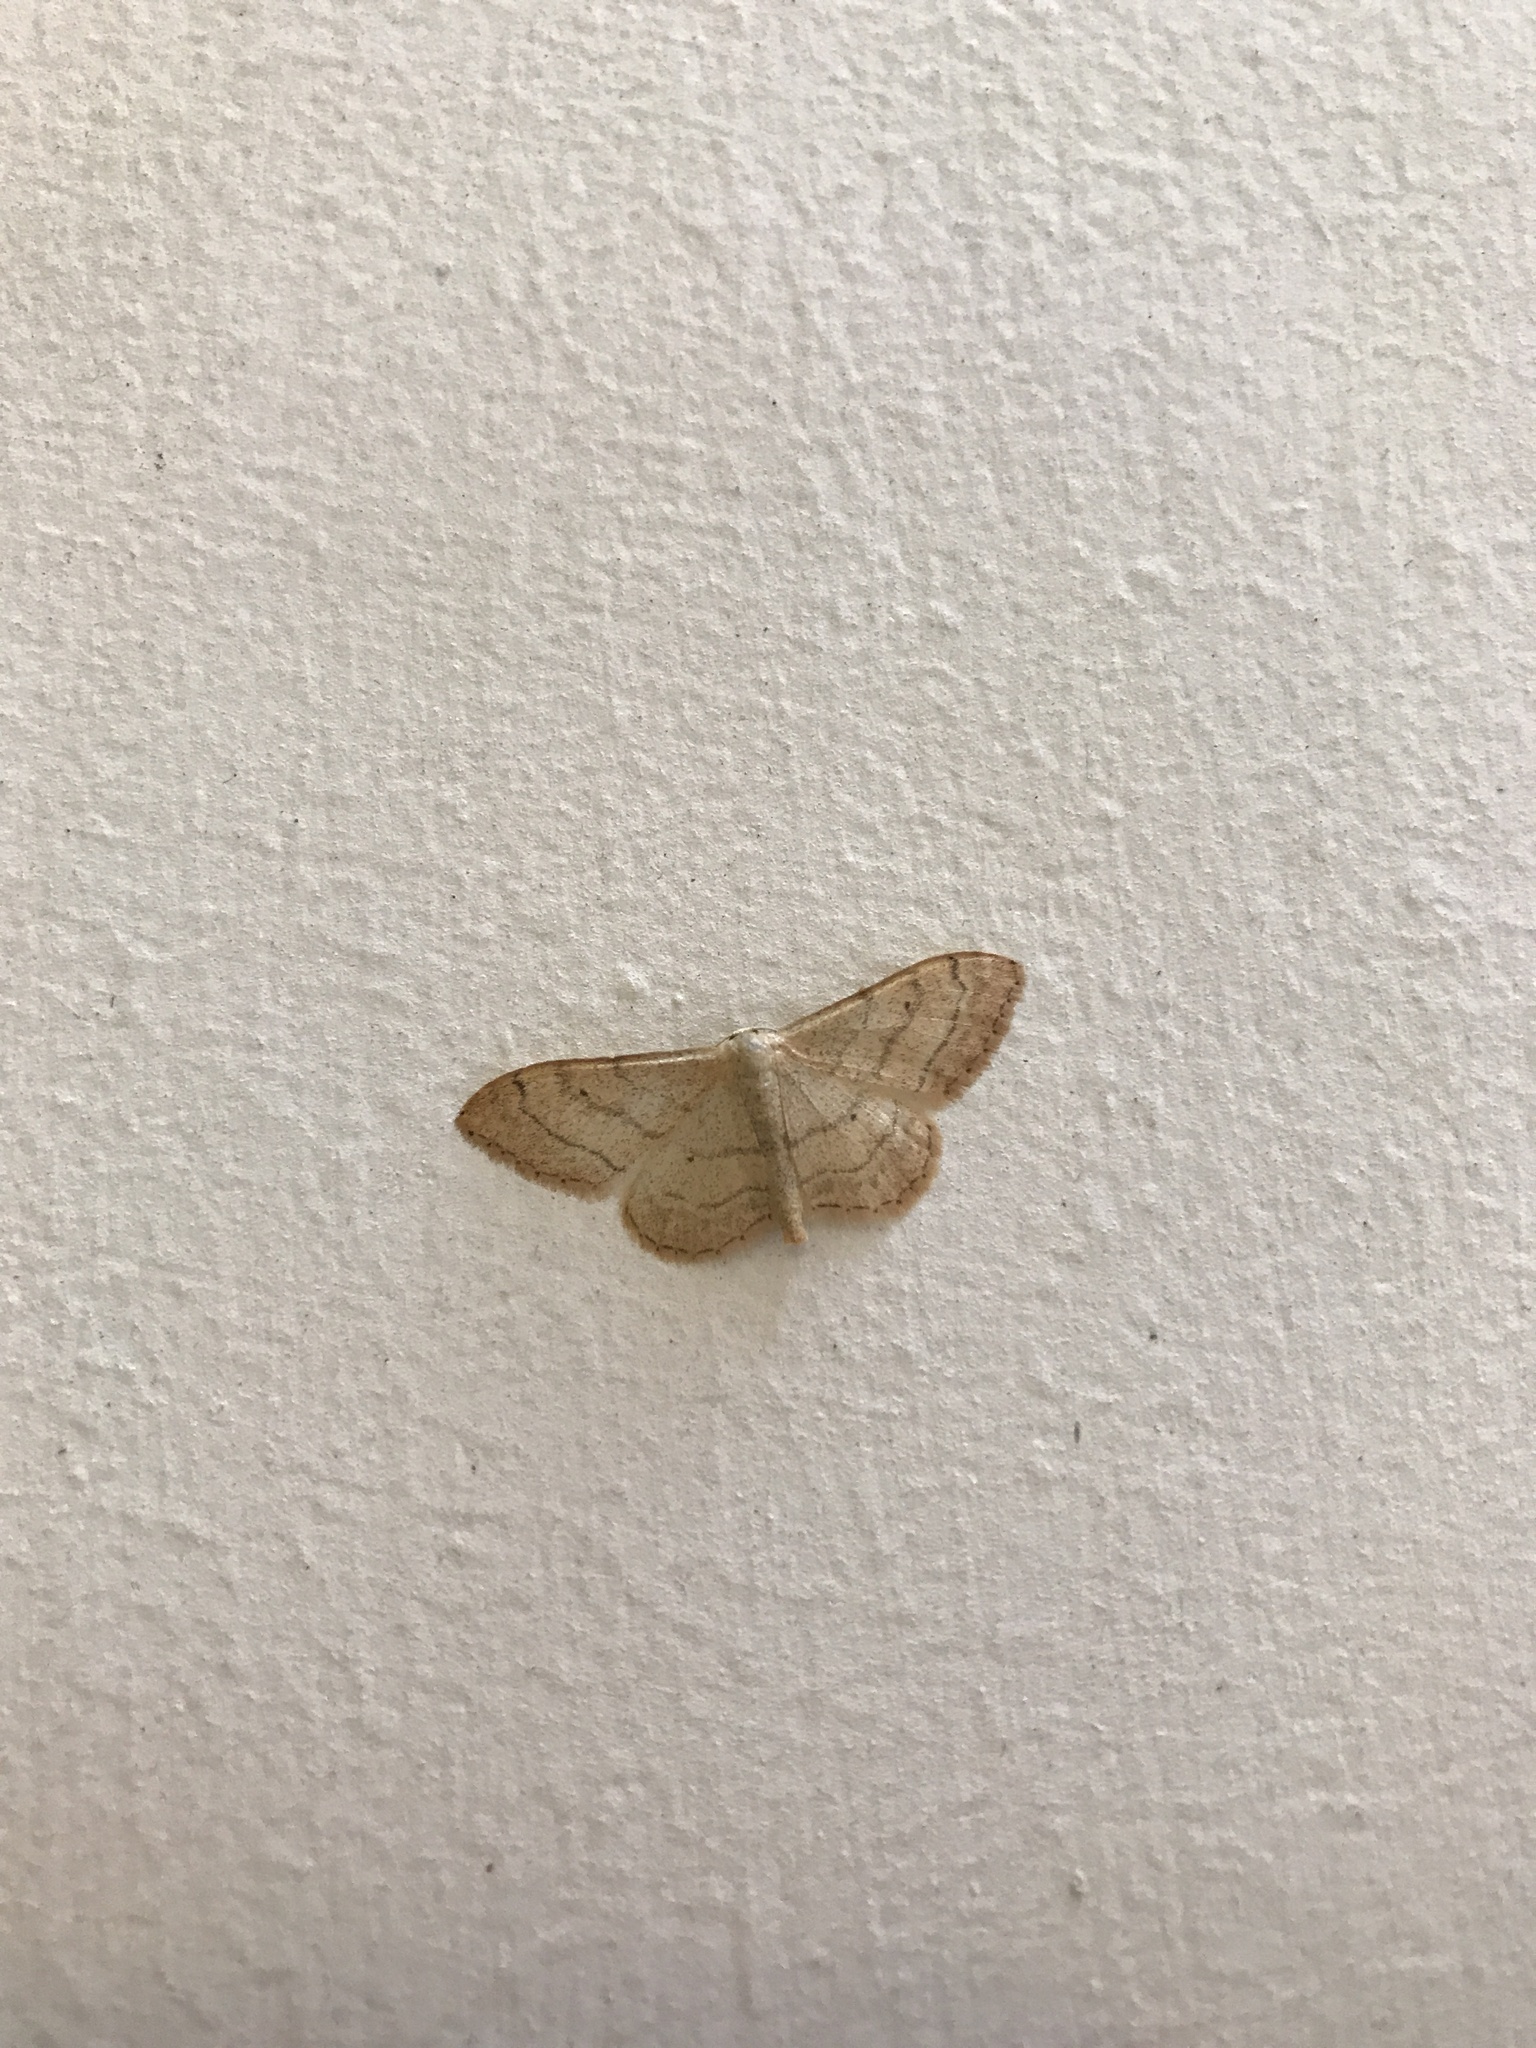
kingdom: Animalia
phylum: Arthropoda
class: Insecta
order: Lepidoptera
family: Geometridae
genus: Idaea
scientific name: Idaea aversata
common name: Riband wave
